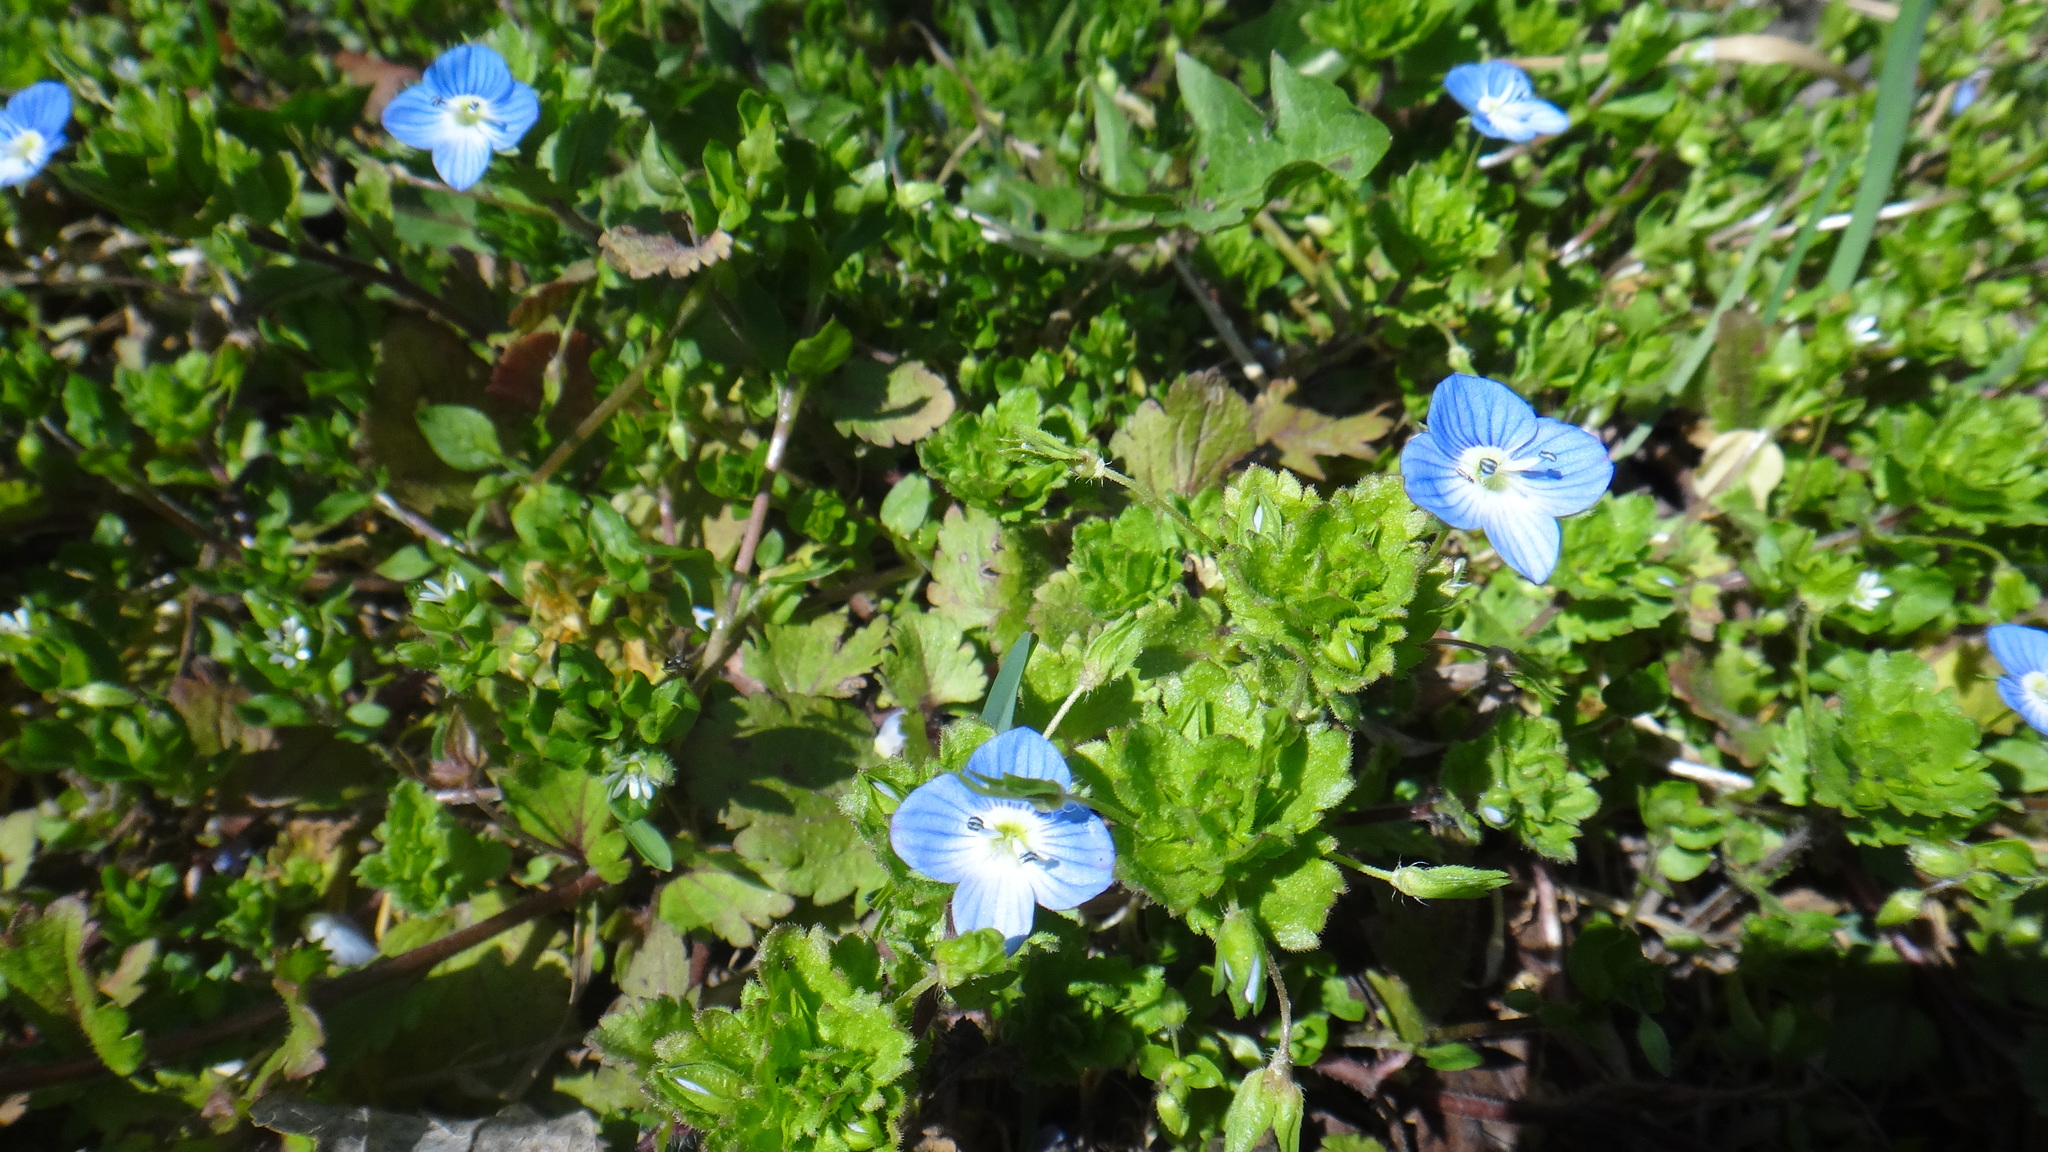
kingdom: Plantae
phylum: Tracheophyta
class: Magnoliopsida
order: Lamiales
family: Plantaginaceae
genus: Veronica
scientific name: Veronica persica
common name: Common field-speedwell
